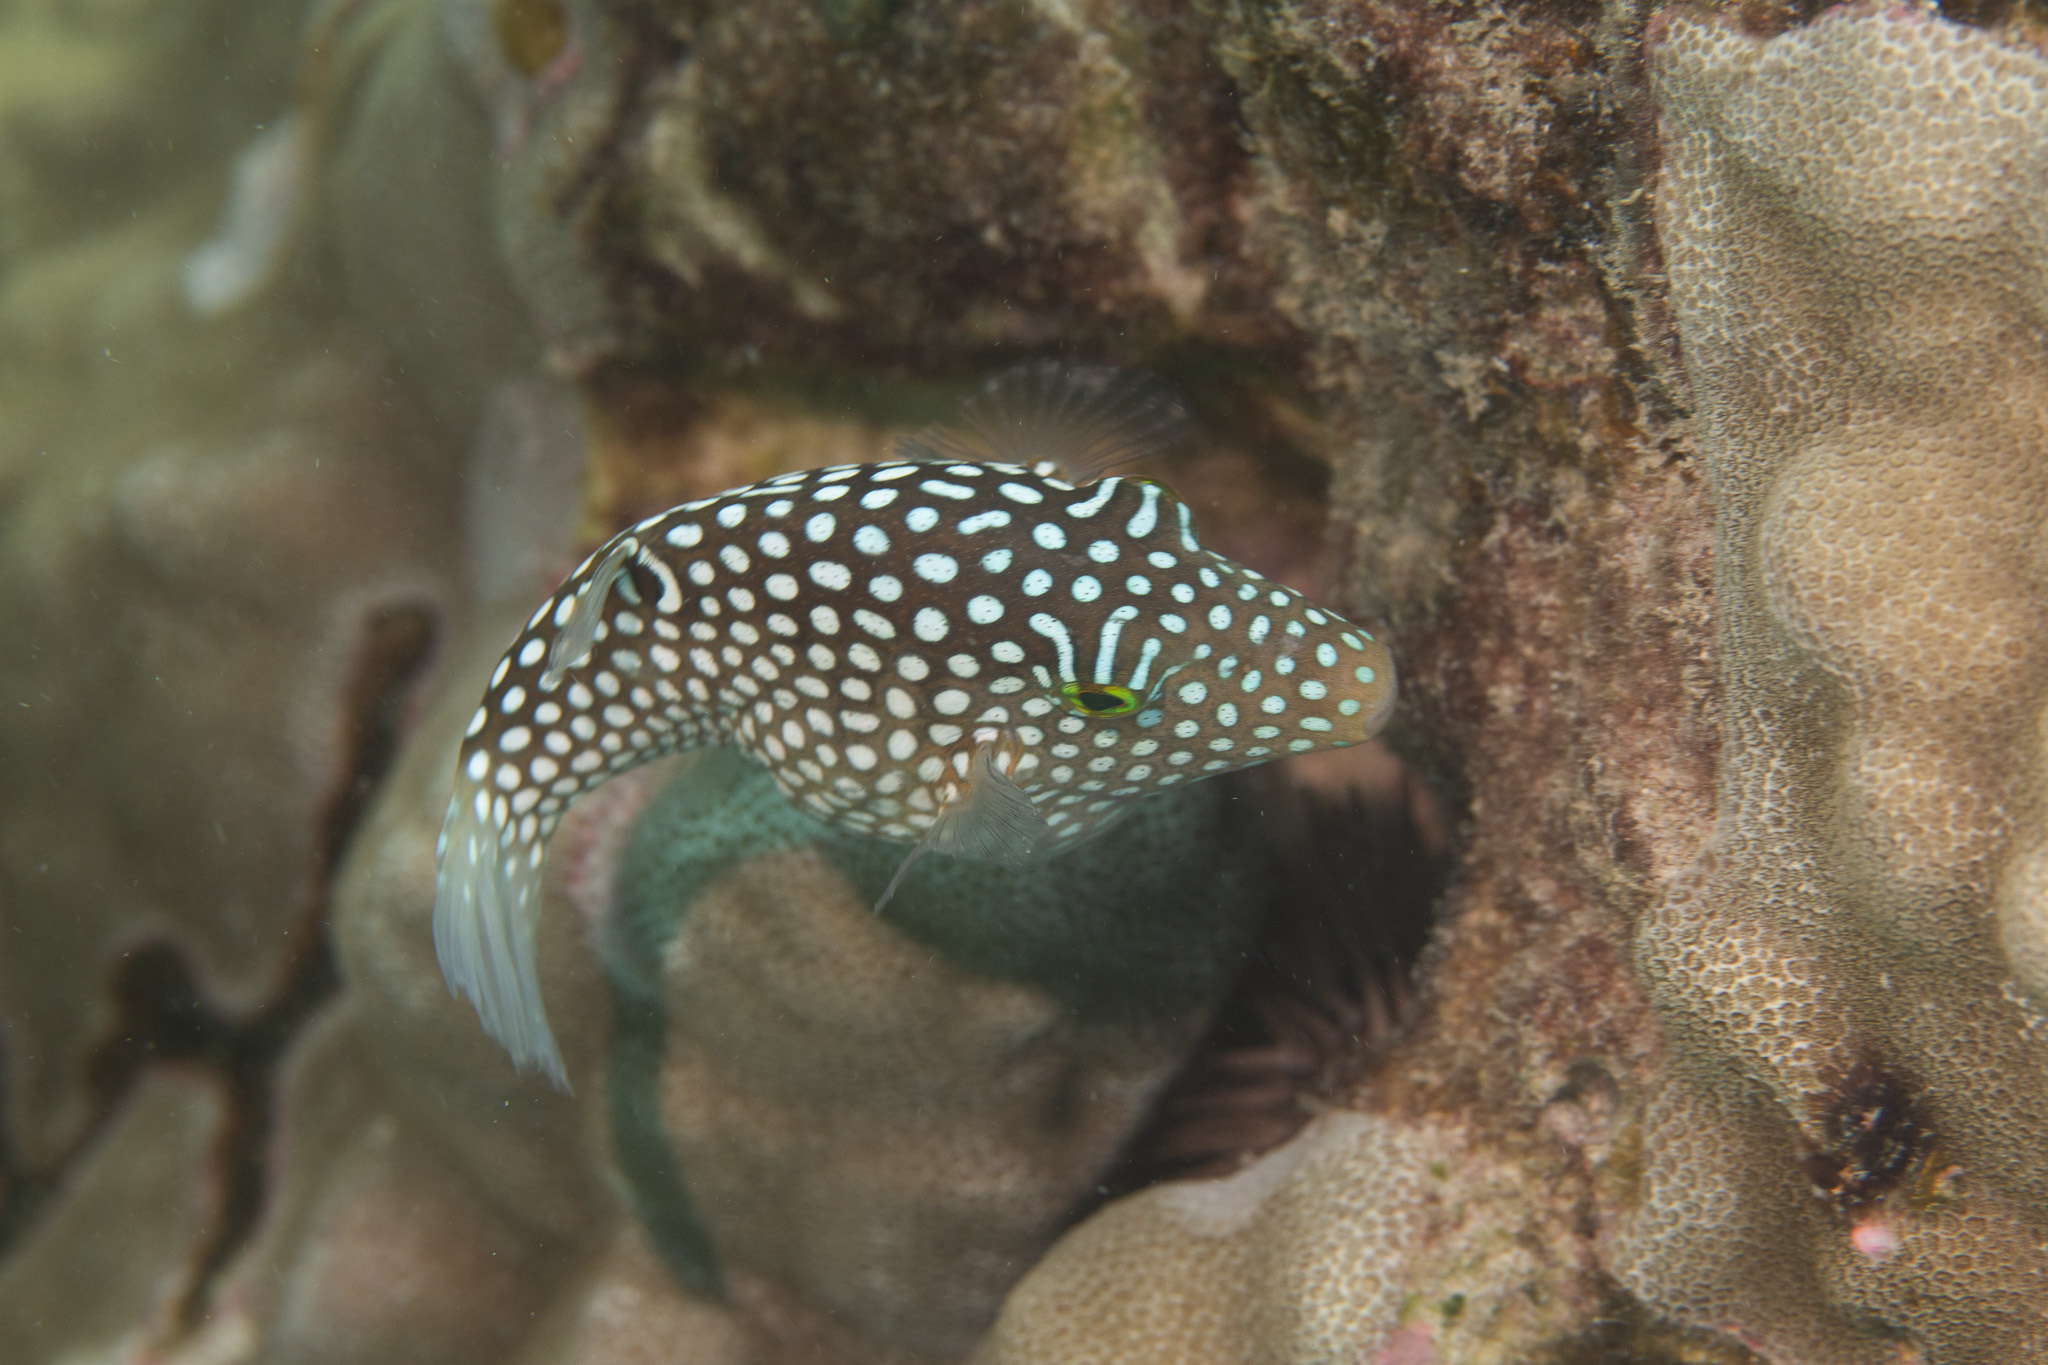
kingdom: Animalia
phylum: Chordata
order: Tetraodontiformes
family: Tetraodontidae
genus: Canthigaster
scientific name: Canthigaster jactator
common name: Hawaiian whitespotted toby
